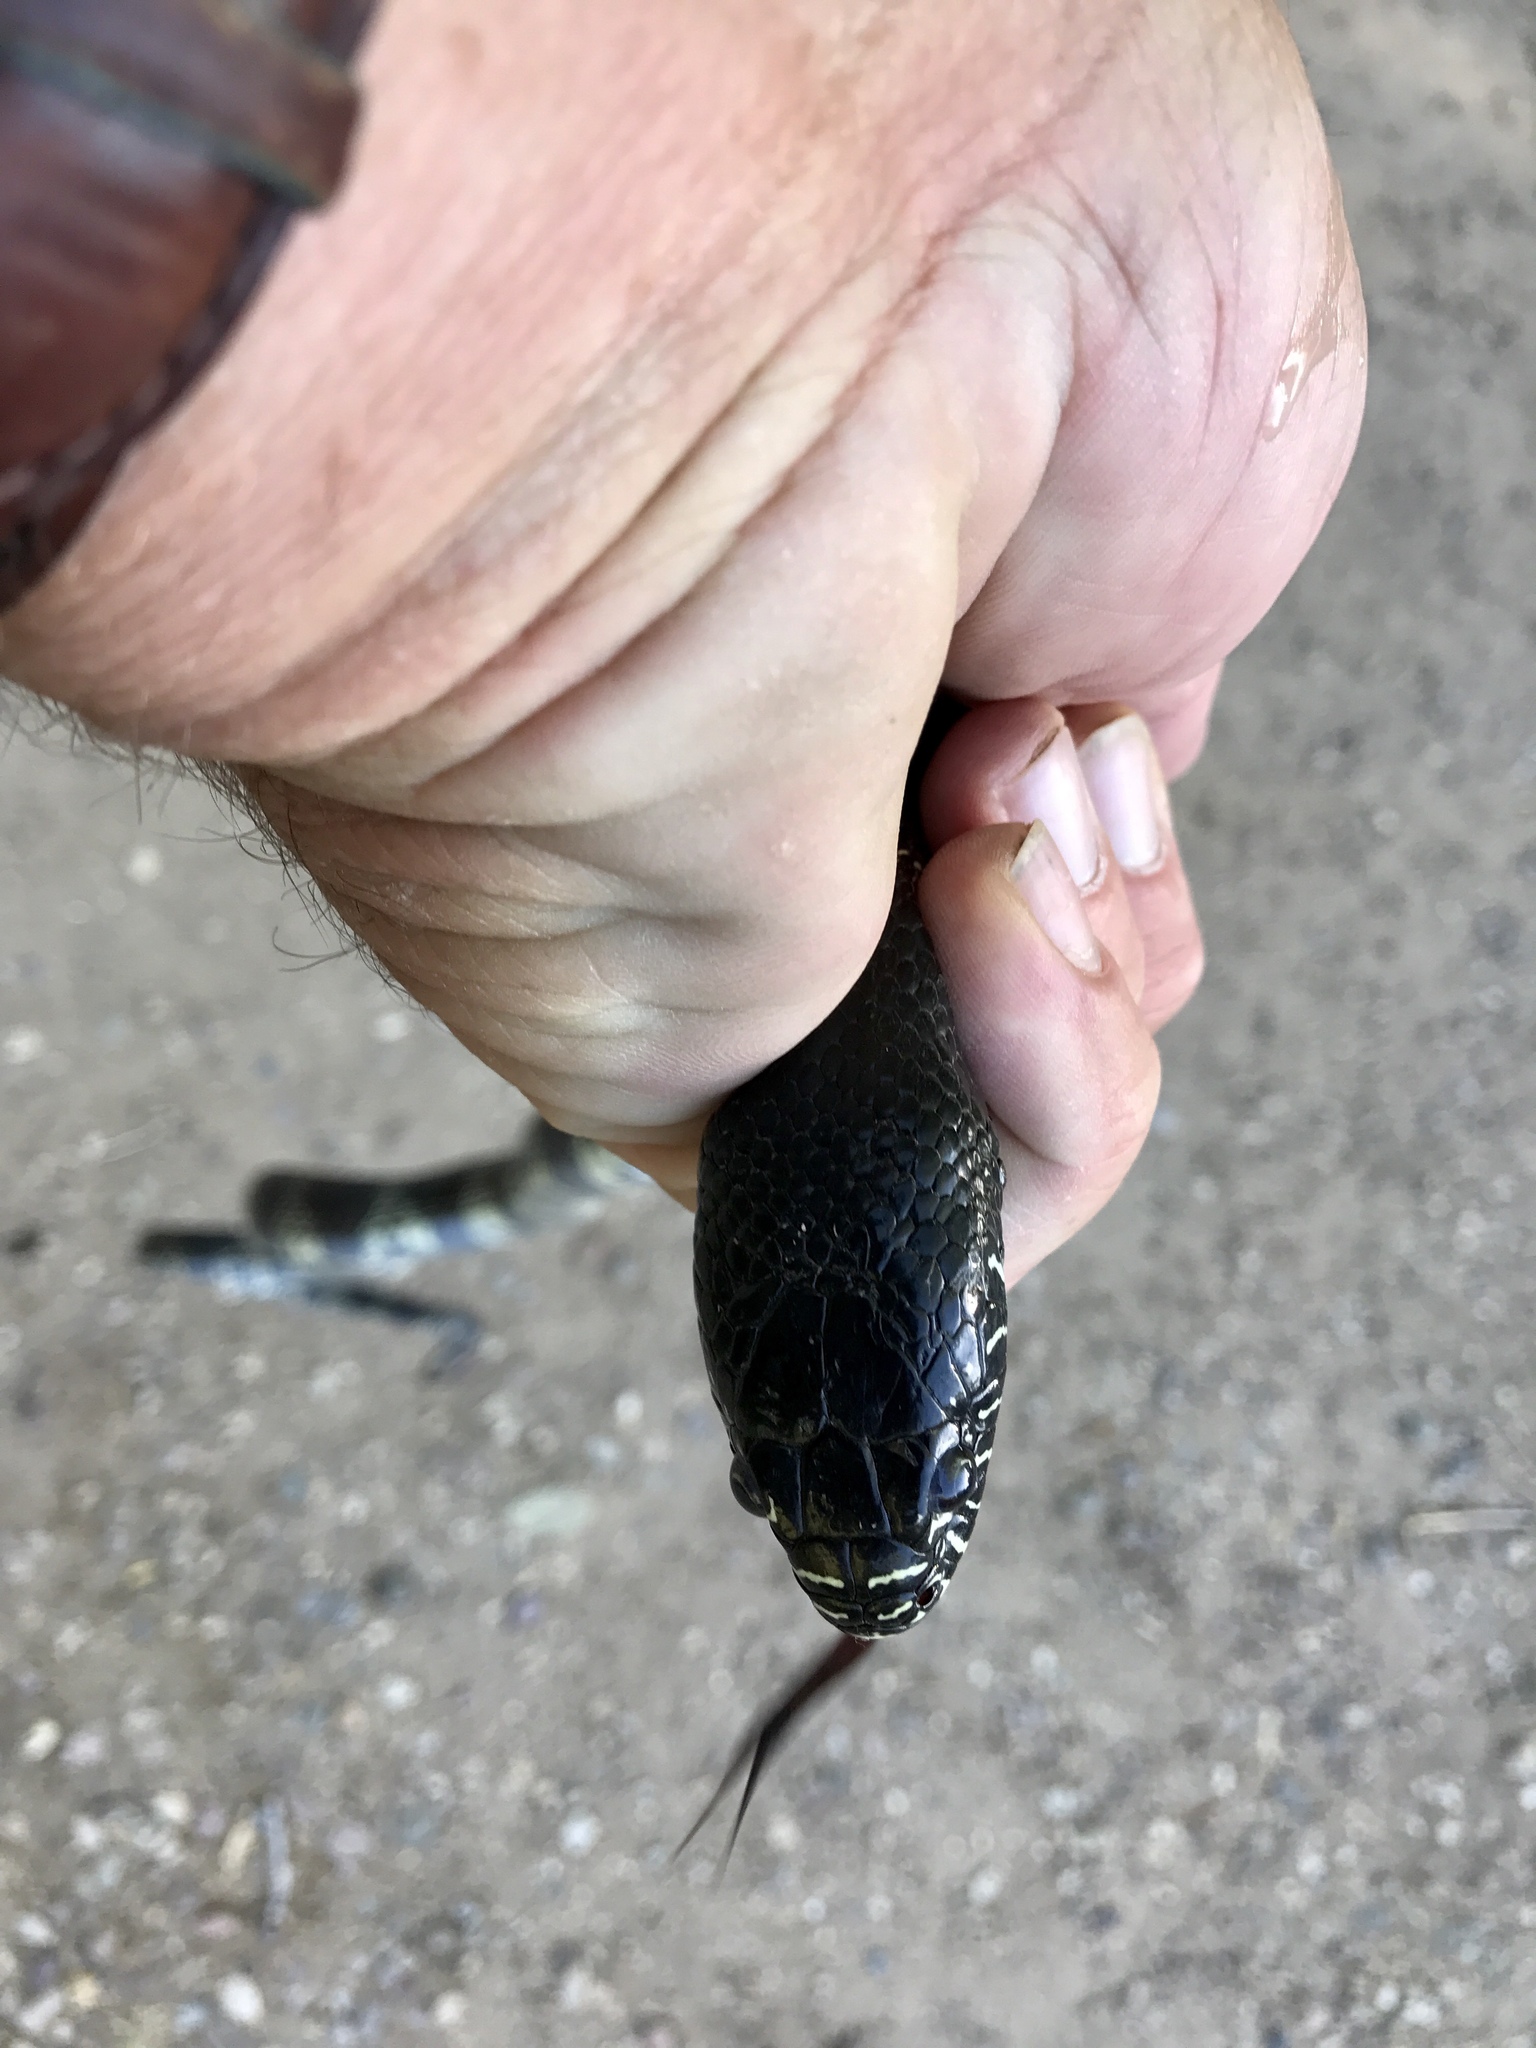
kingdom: Animalia
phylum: Chordata
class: Squamata
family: Colubridae
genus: Lampropeltis
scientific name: Lampropeltis splendida
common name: Desert kingsnake
